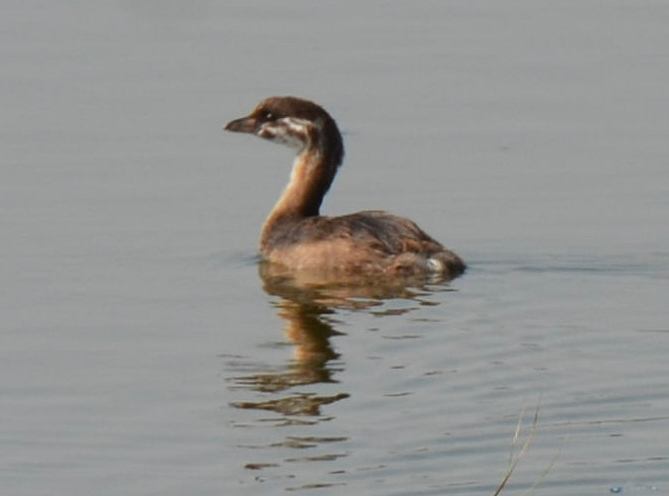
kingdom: Animalia
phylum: Chordata
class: Aves
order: Podicipediformes
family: Podicipedidae
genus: Podilymbus
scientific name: Podilymbus podiceps
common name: Pied-billed grebe
